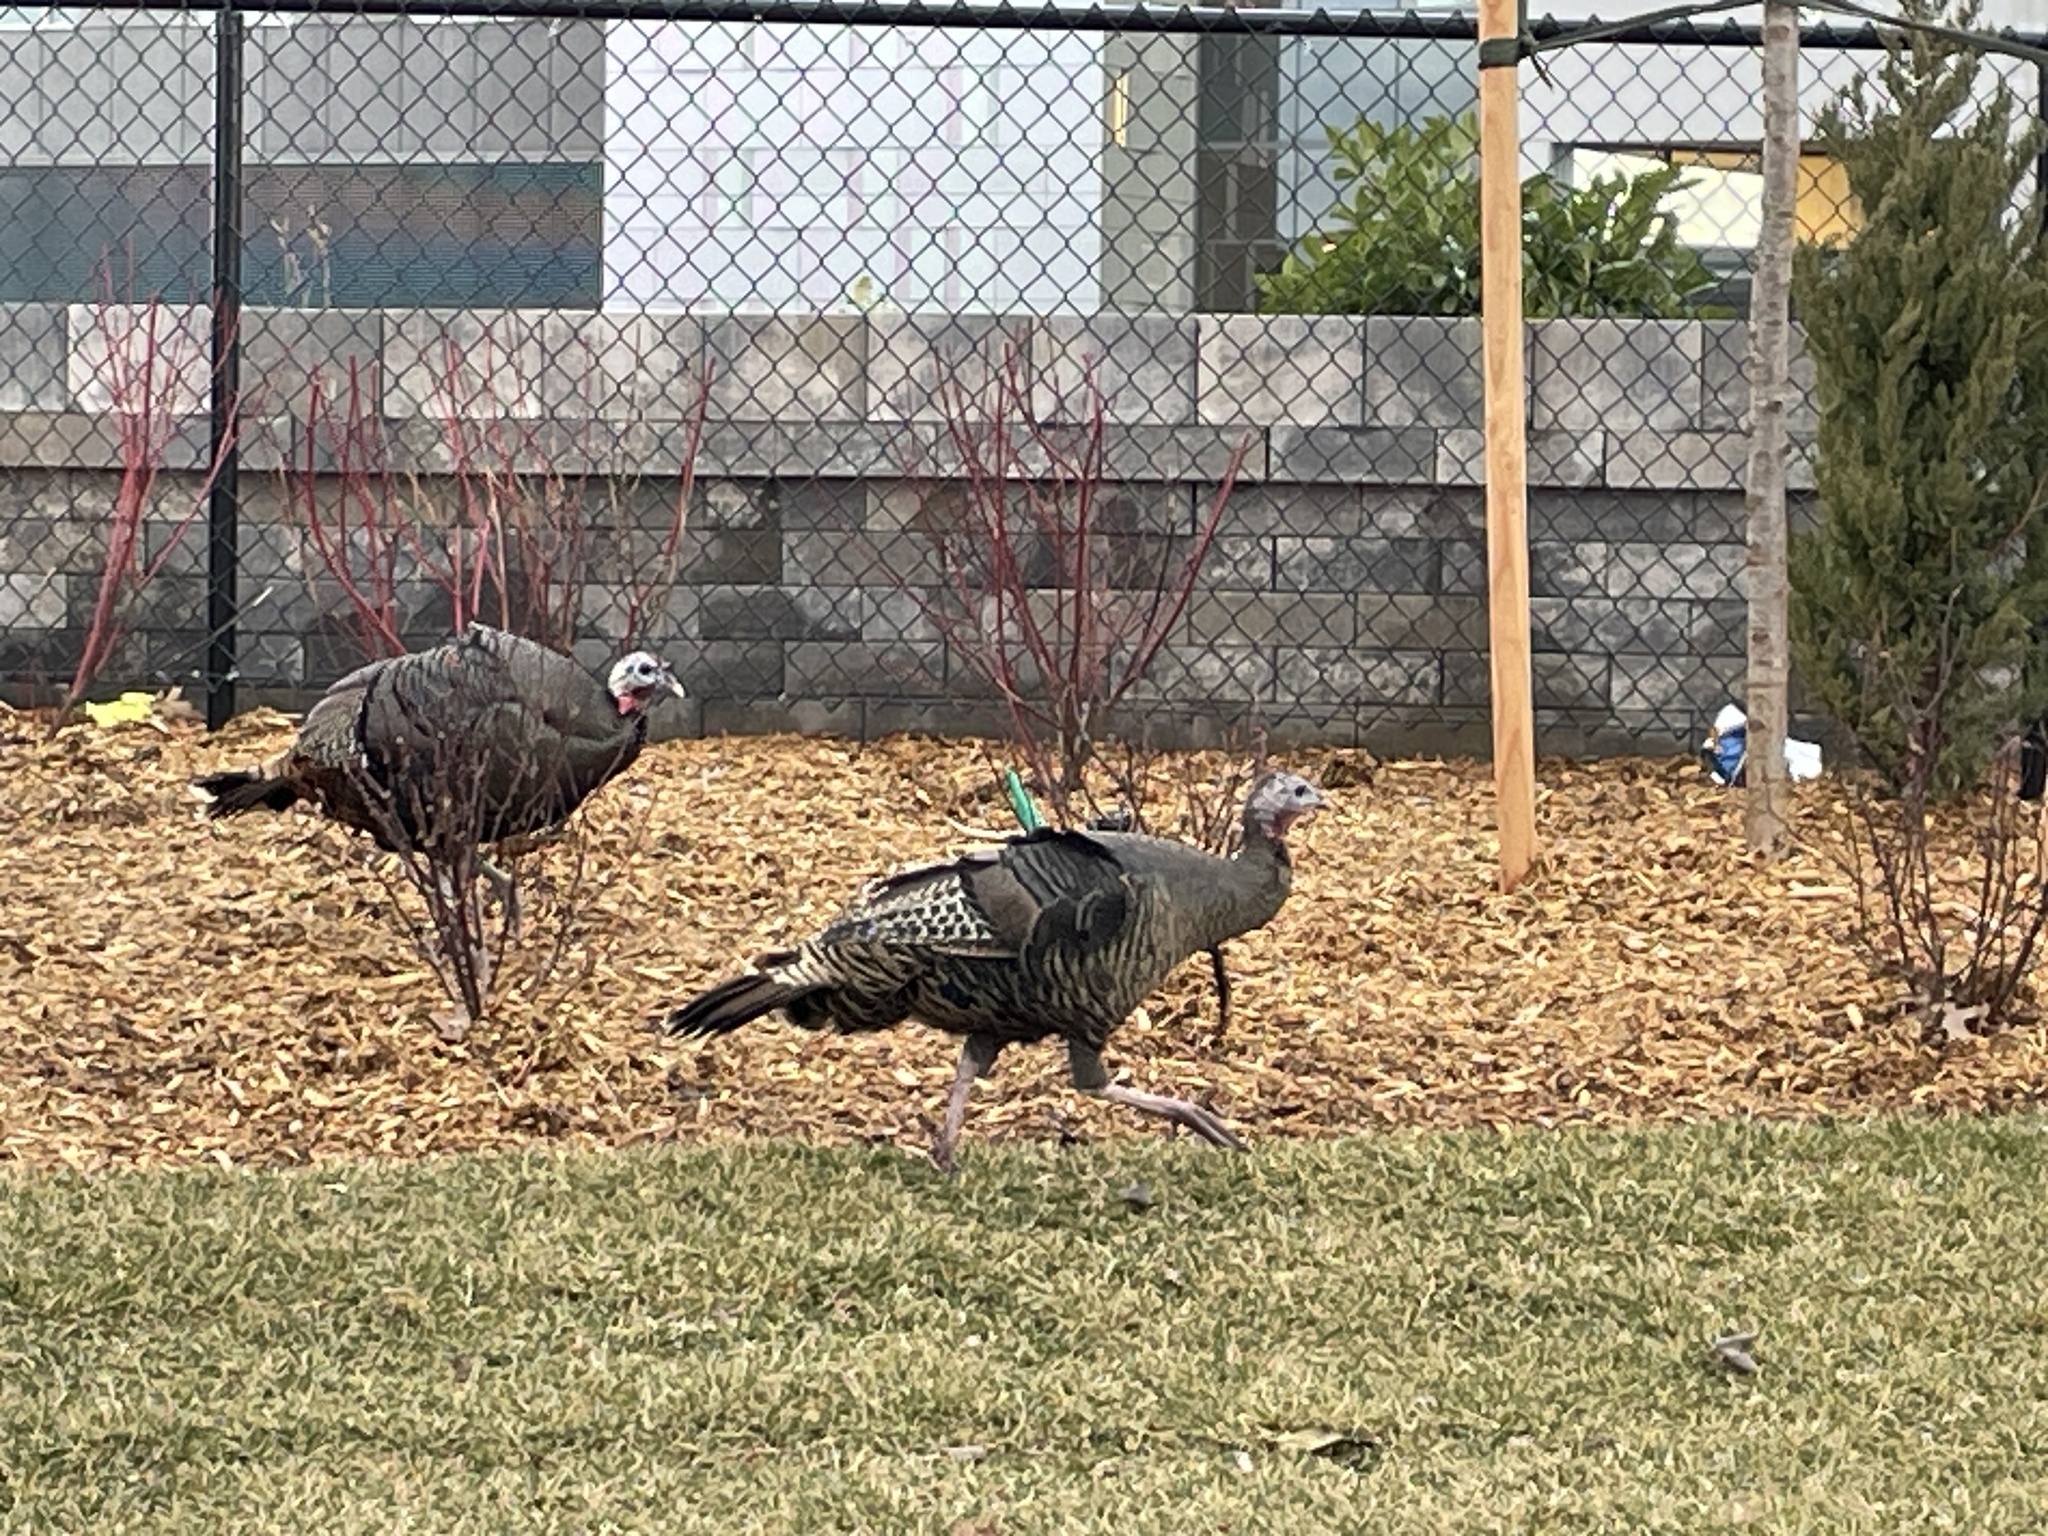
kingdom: Animalia
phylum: Chordata
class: Aves
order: Galliformes
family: Phasianidae
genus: Meleagris
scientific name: Meleagris gallopavo
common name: Wild turkey
